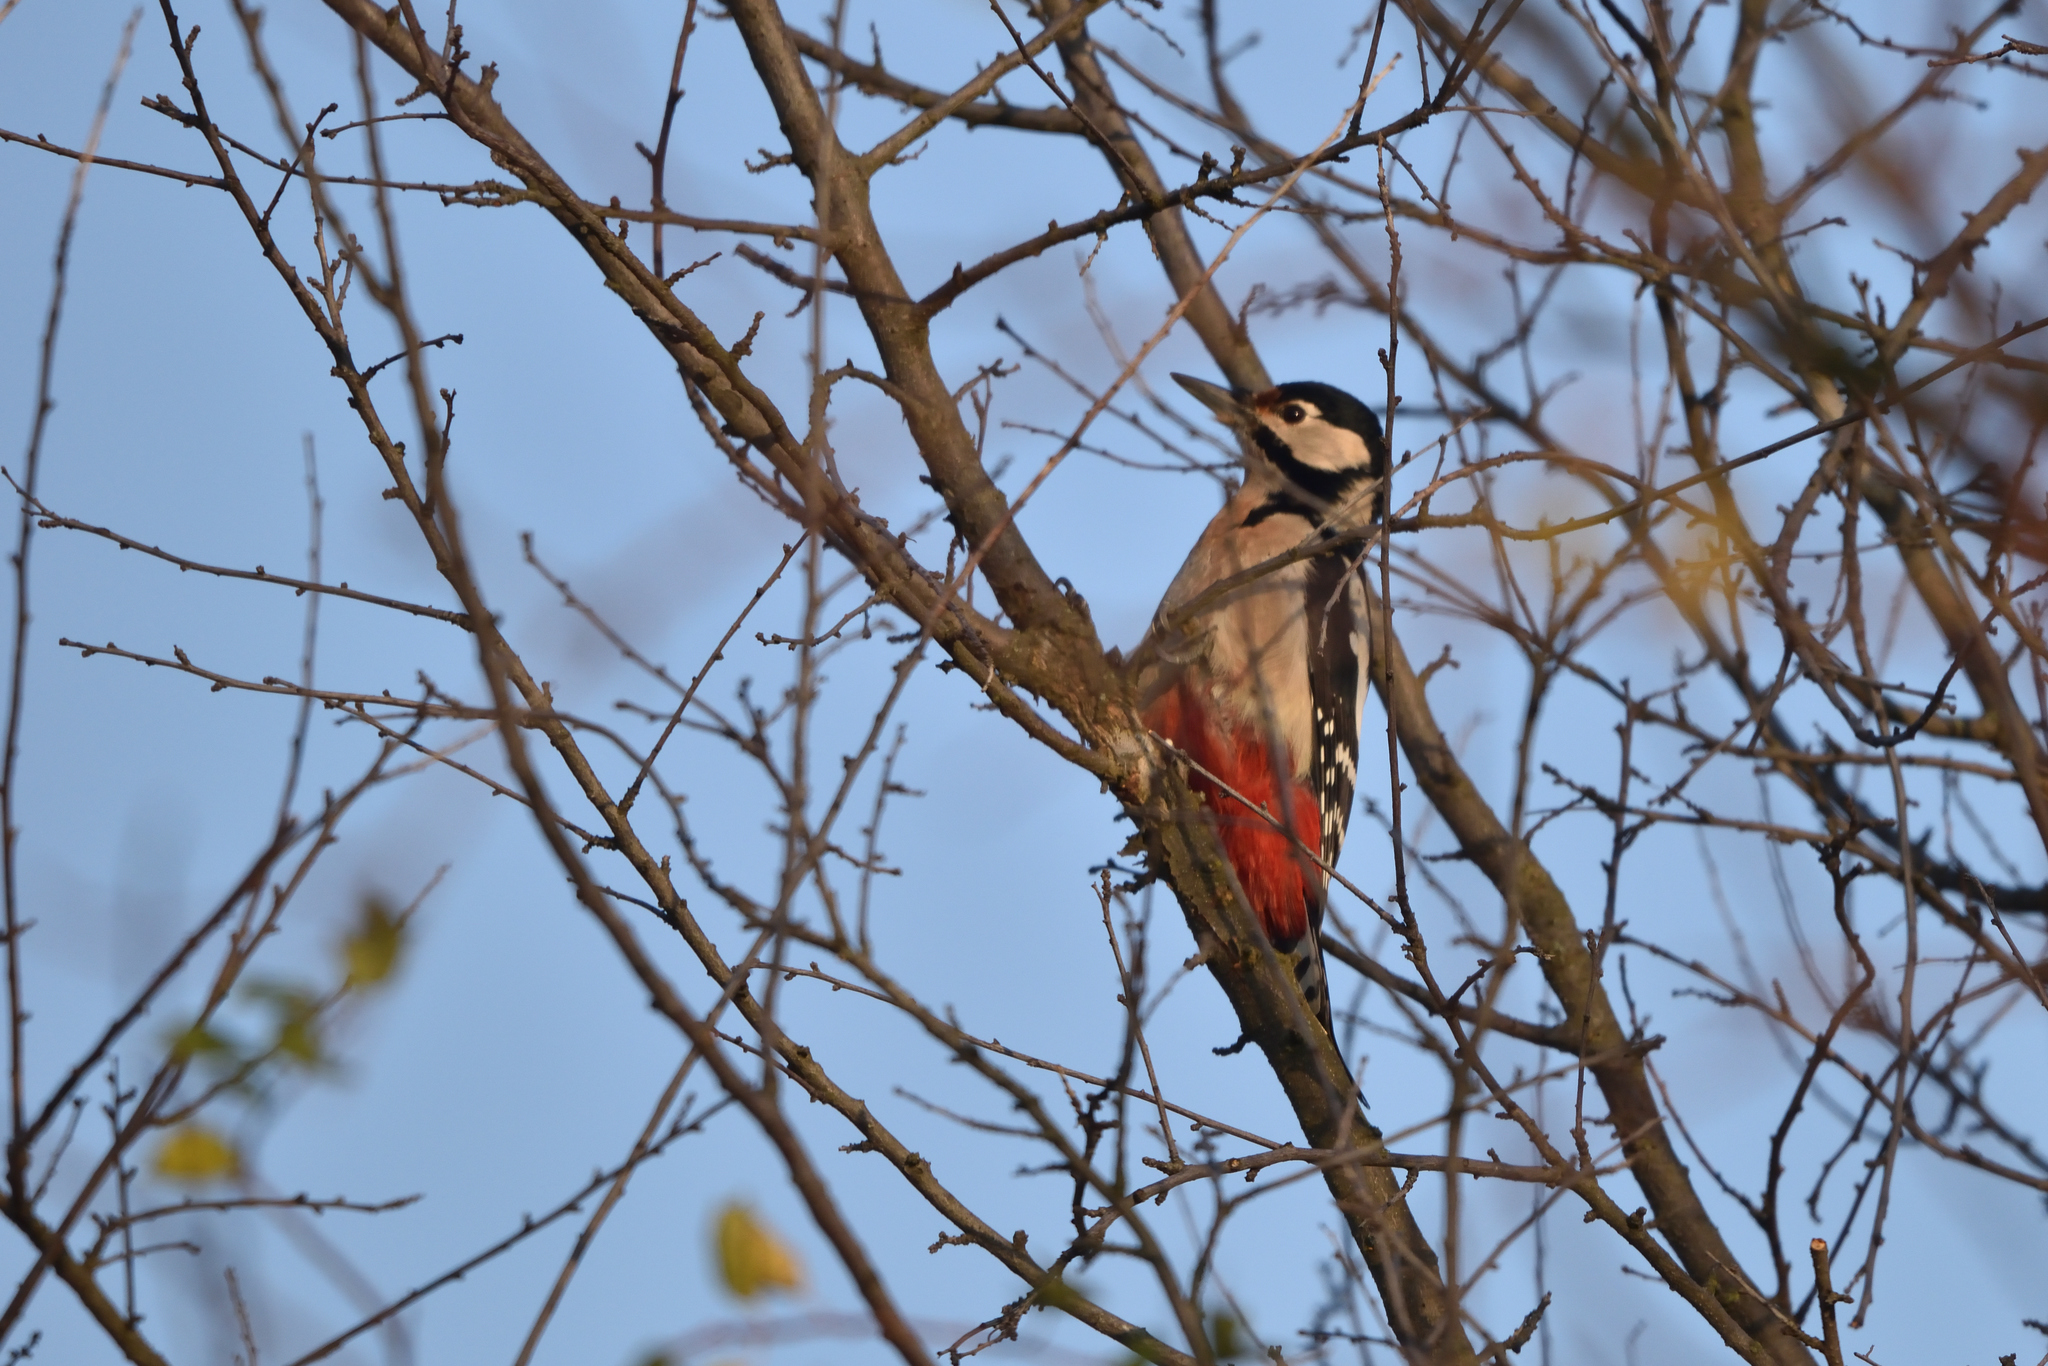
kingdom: Animalia
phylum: Chordata
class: Aves
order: Piciformes
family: Picidae
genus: Dendrocopos
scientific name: Dendrocopos major
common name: Great spotted woodpecker
